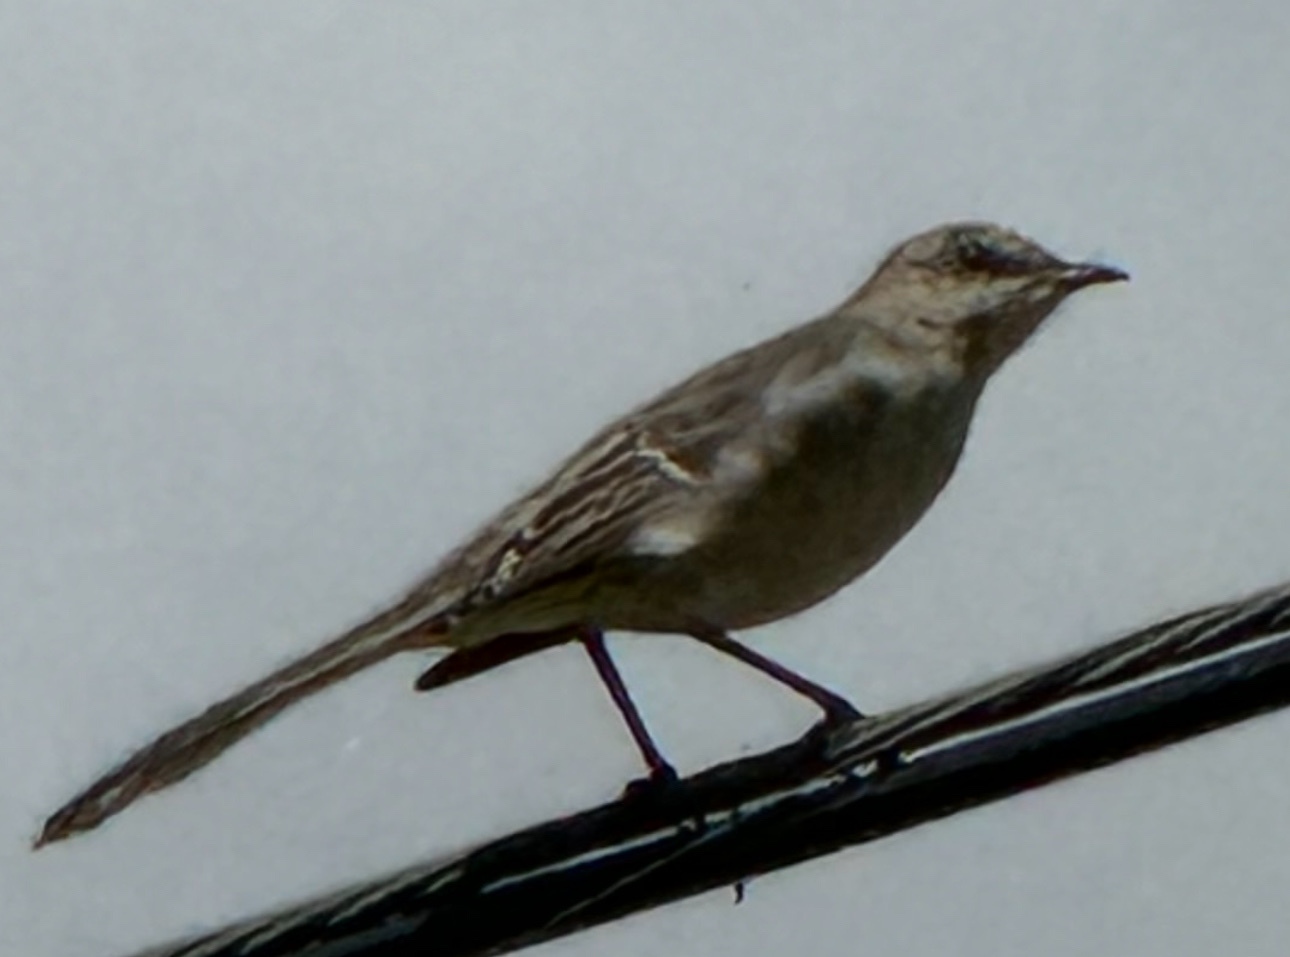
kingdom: Animalia
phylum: Chordata
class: Aves
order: Passeriformes
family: Mimidae
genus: Mimus
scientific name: Mimus polyglottos
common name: Northern mockingbird
